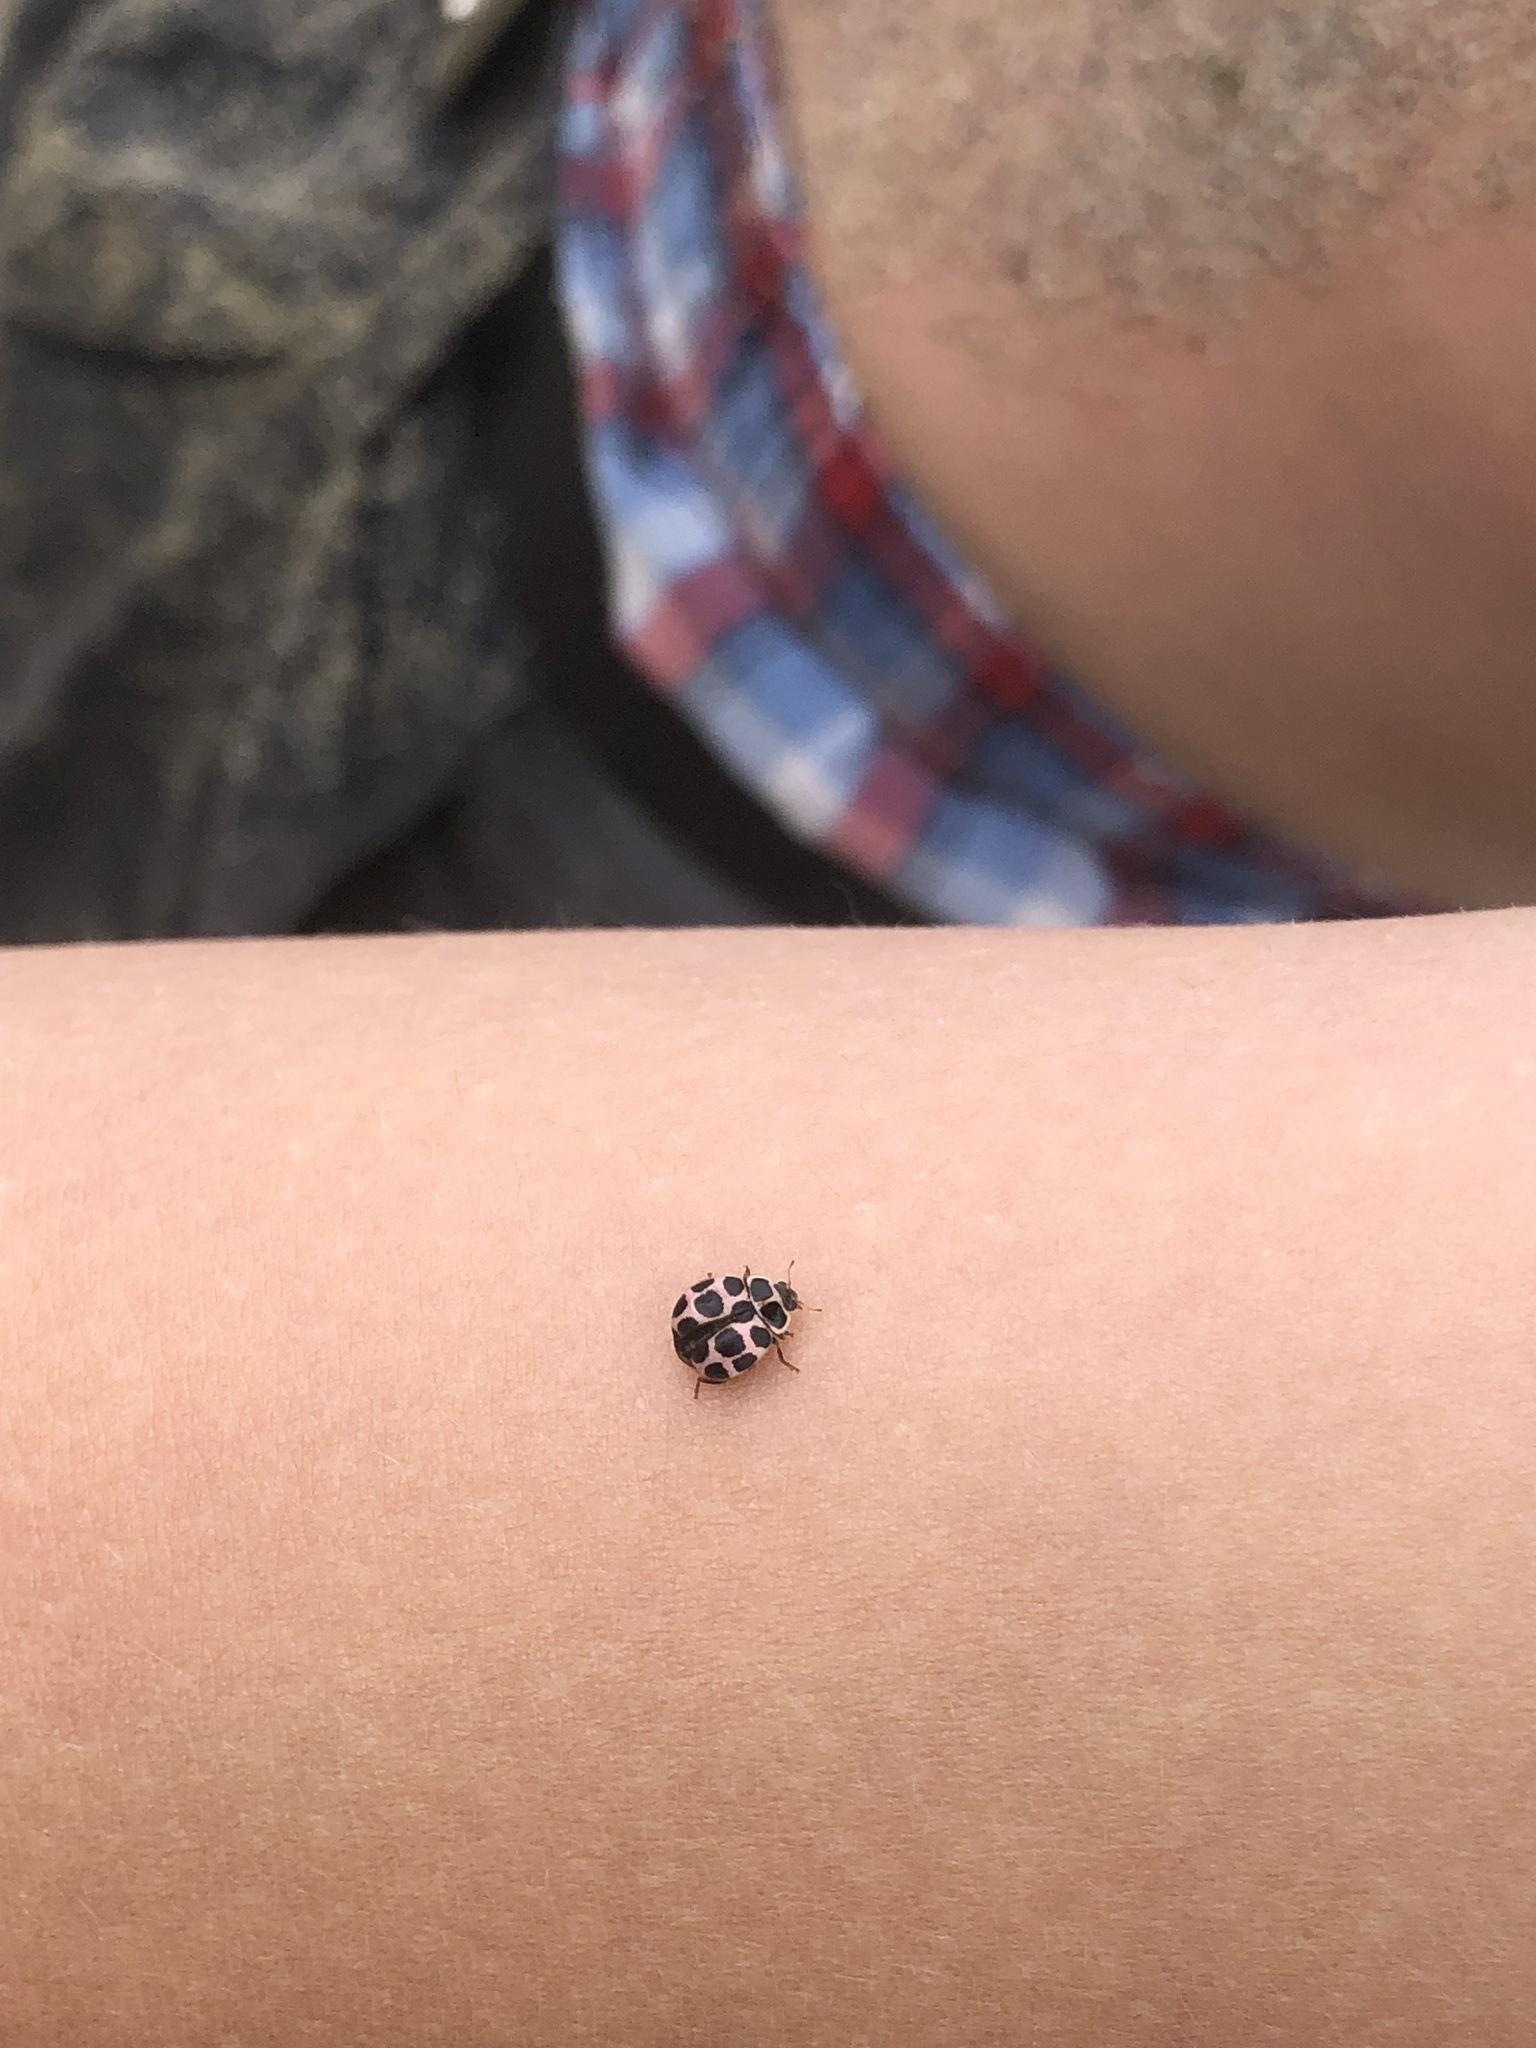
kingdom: Animalia
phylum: Arthropoda
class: Insecta
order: Coleoptera
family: Coccinellidae
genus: Calvia
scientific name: Calvia quatuordecimguttata
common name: Cream-spot ladybird
